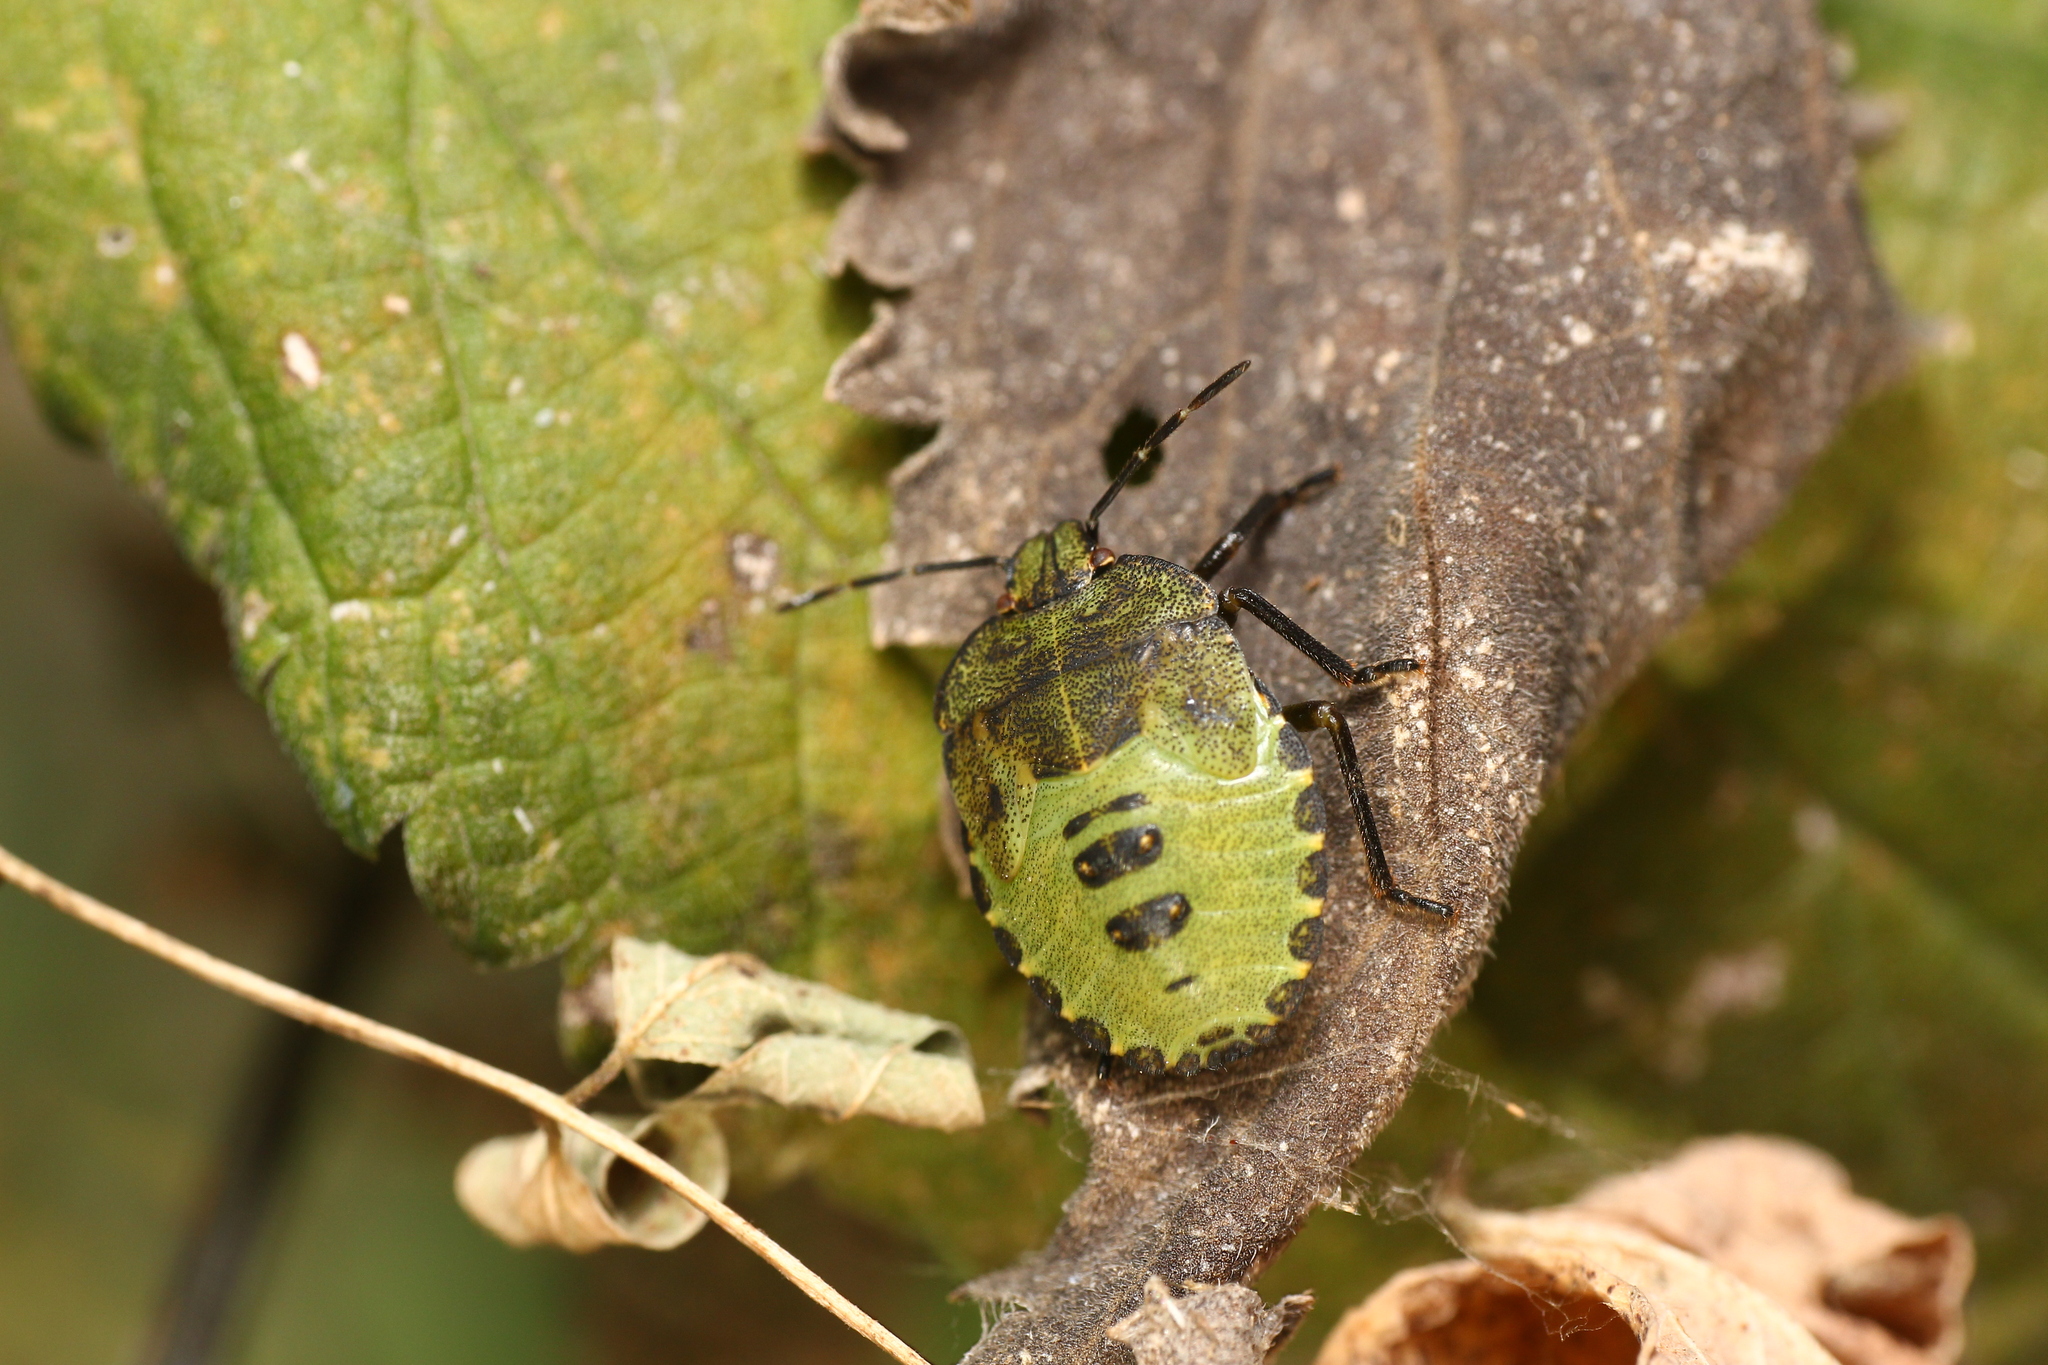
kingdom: Animalia
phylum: Arthropoda
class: Insecta
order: Hemiptera
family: Pentatomidae
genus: Palomena
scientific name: Palomena prasina
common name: Green shieldbug
